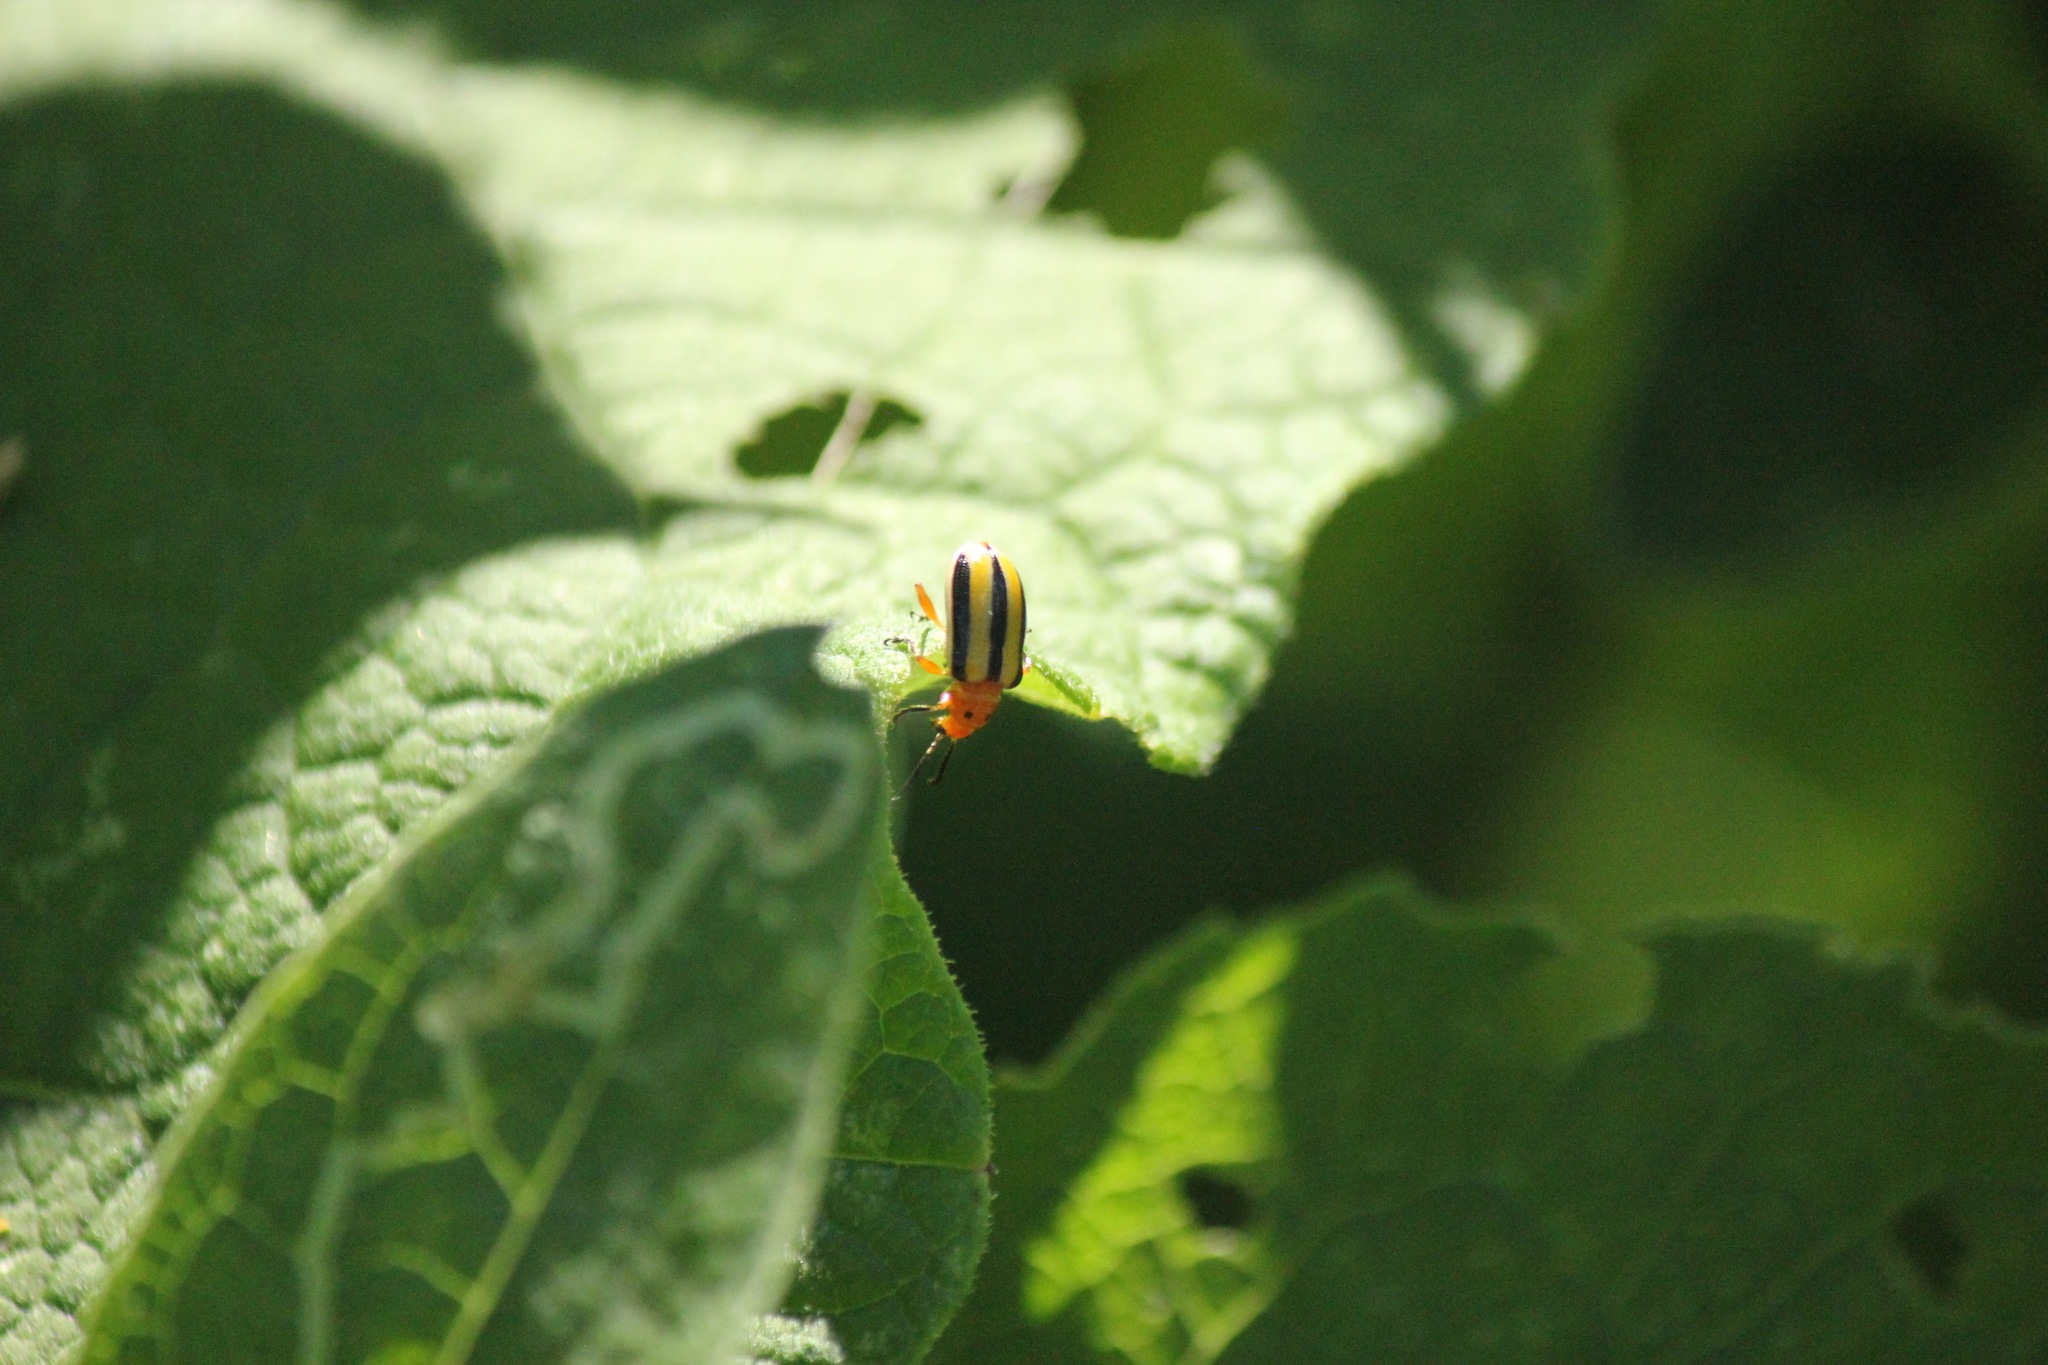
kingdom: Animalia
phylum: Arthropoda
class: Insecta
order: Coleoptera
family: Chrysomelidae
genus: Lema
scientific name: Lema daturaphila
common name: Leaf beetle
